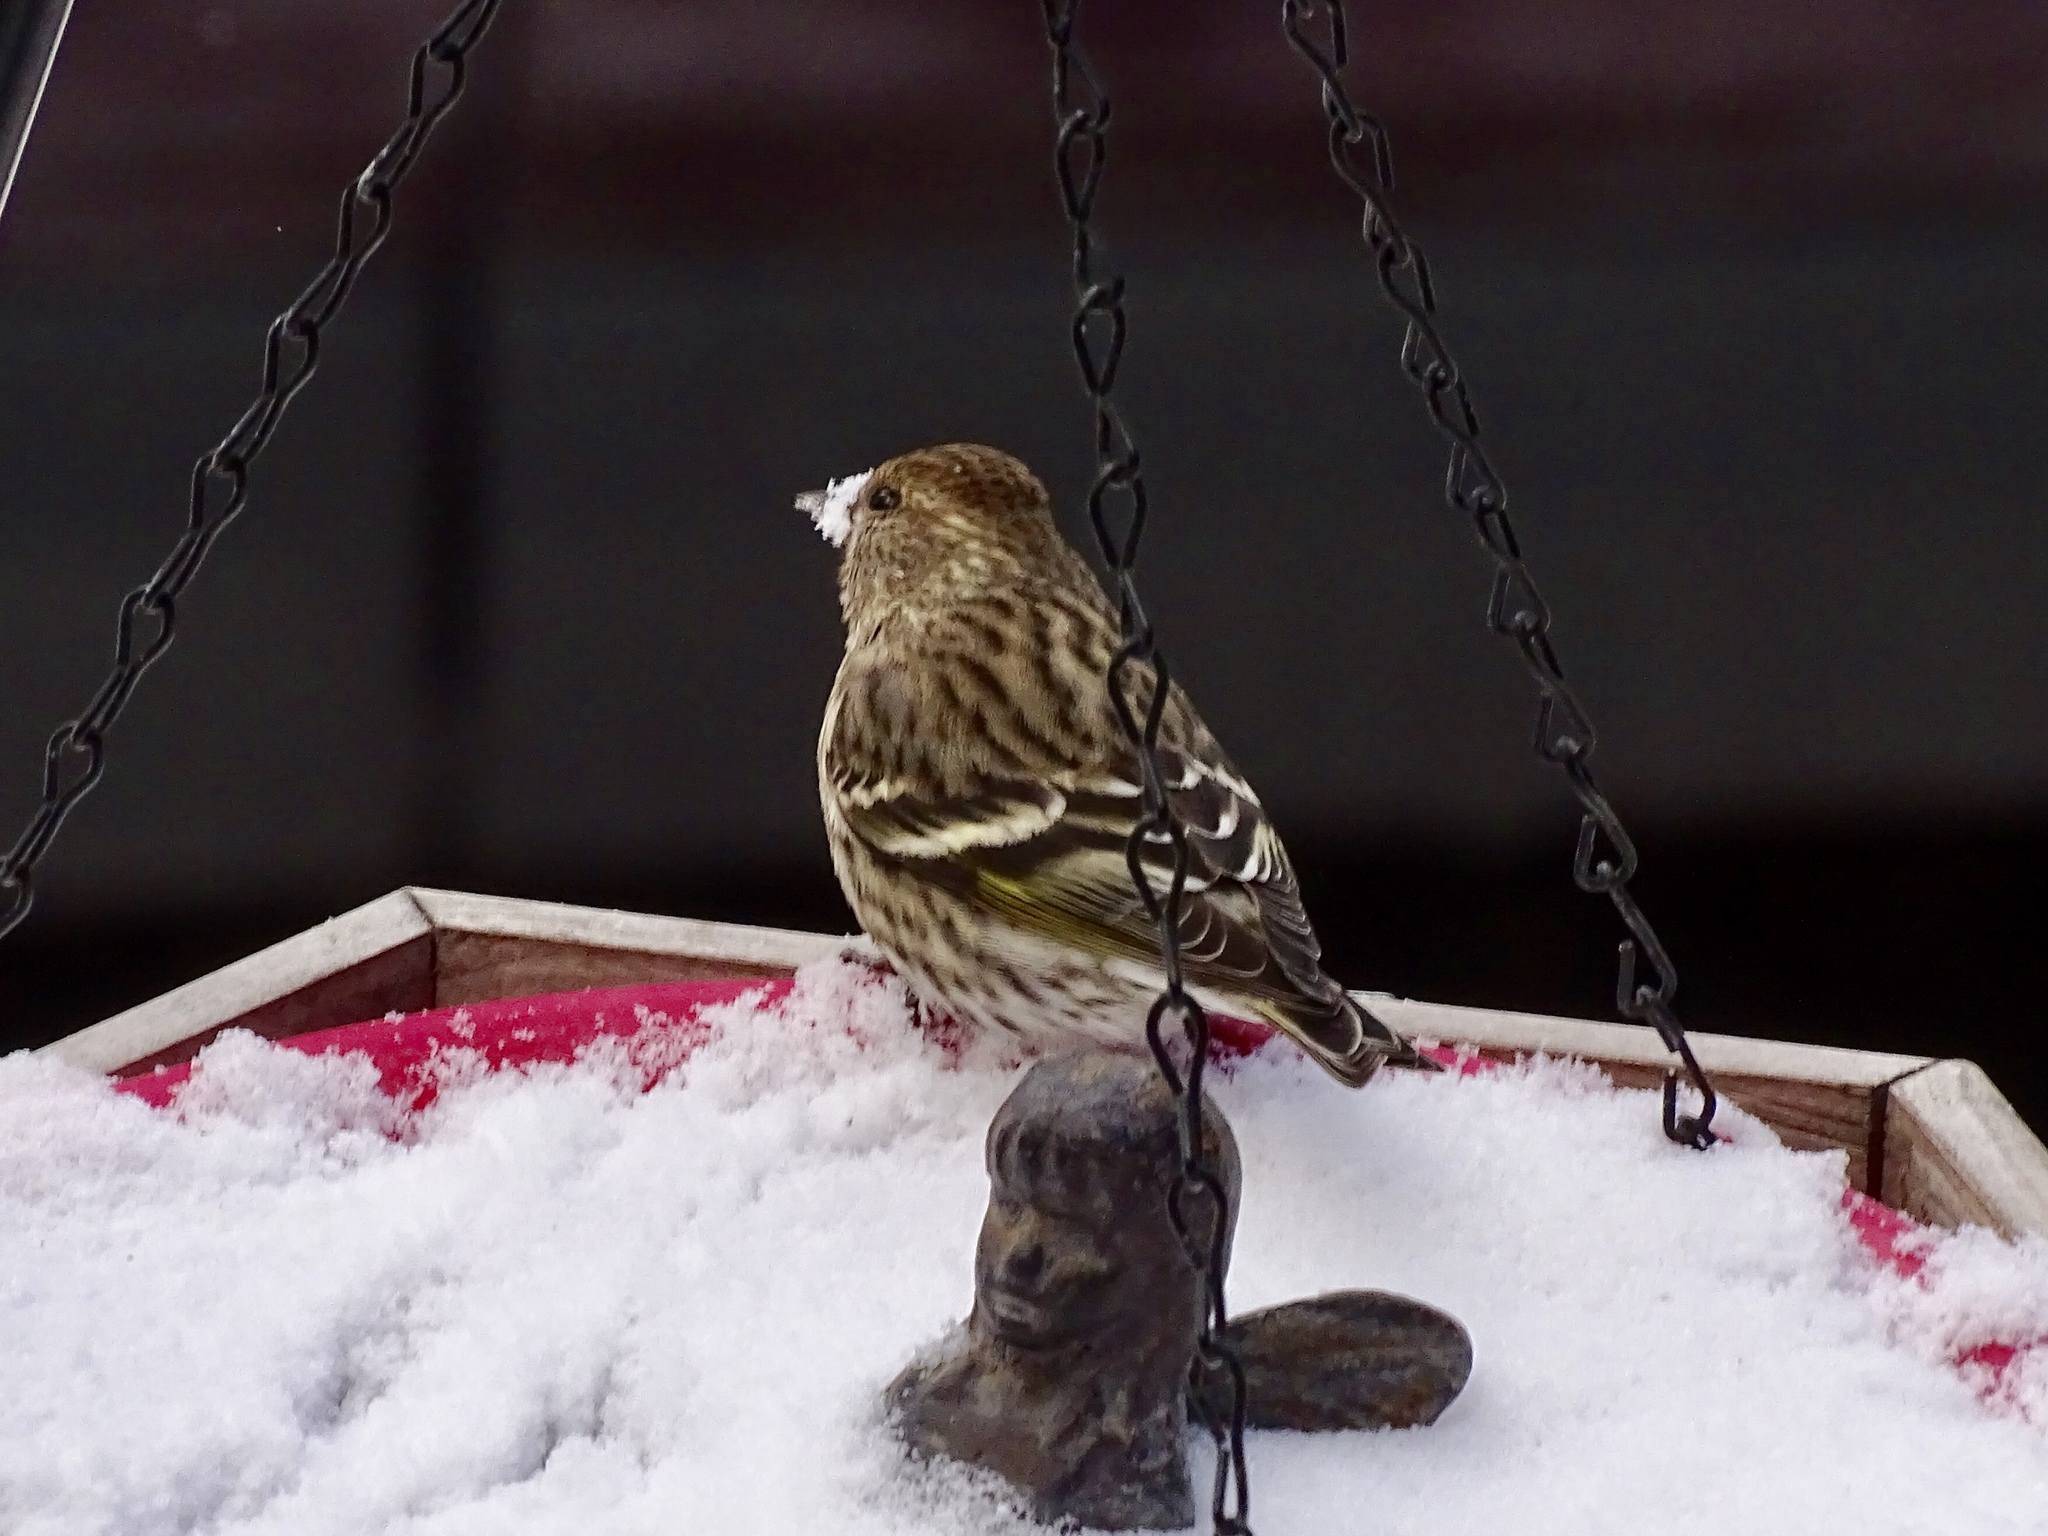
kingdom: Animalia
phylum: Chordata
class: Aves
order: Passeriformes
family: Fringillidae
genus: Spinus
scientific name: Spinus pinus
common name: Pine siskin
